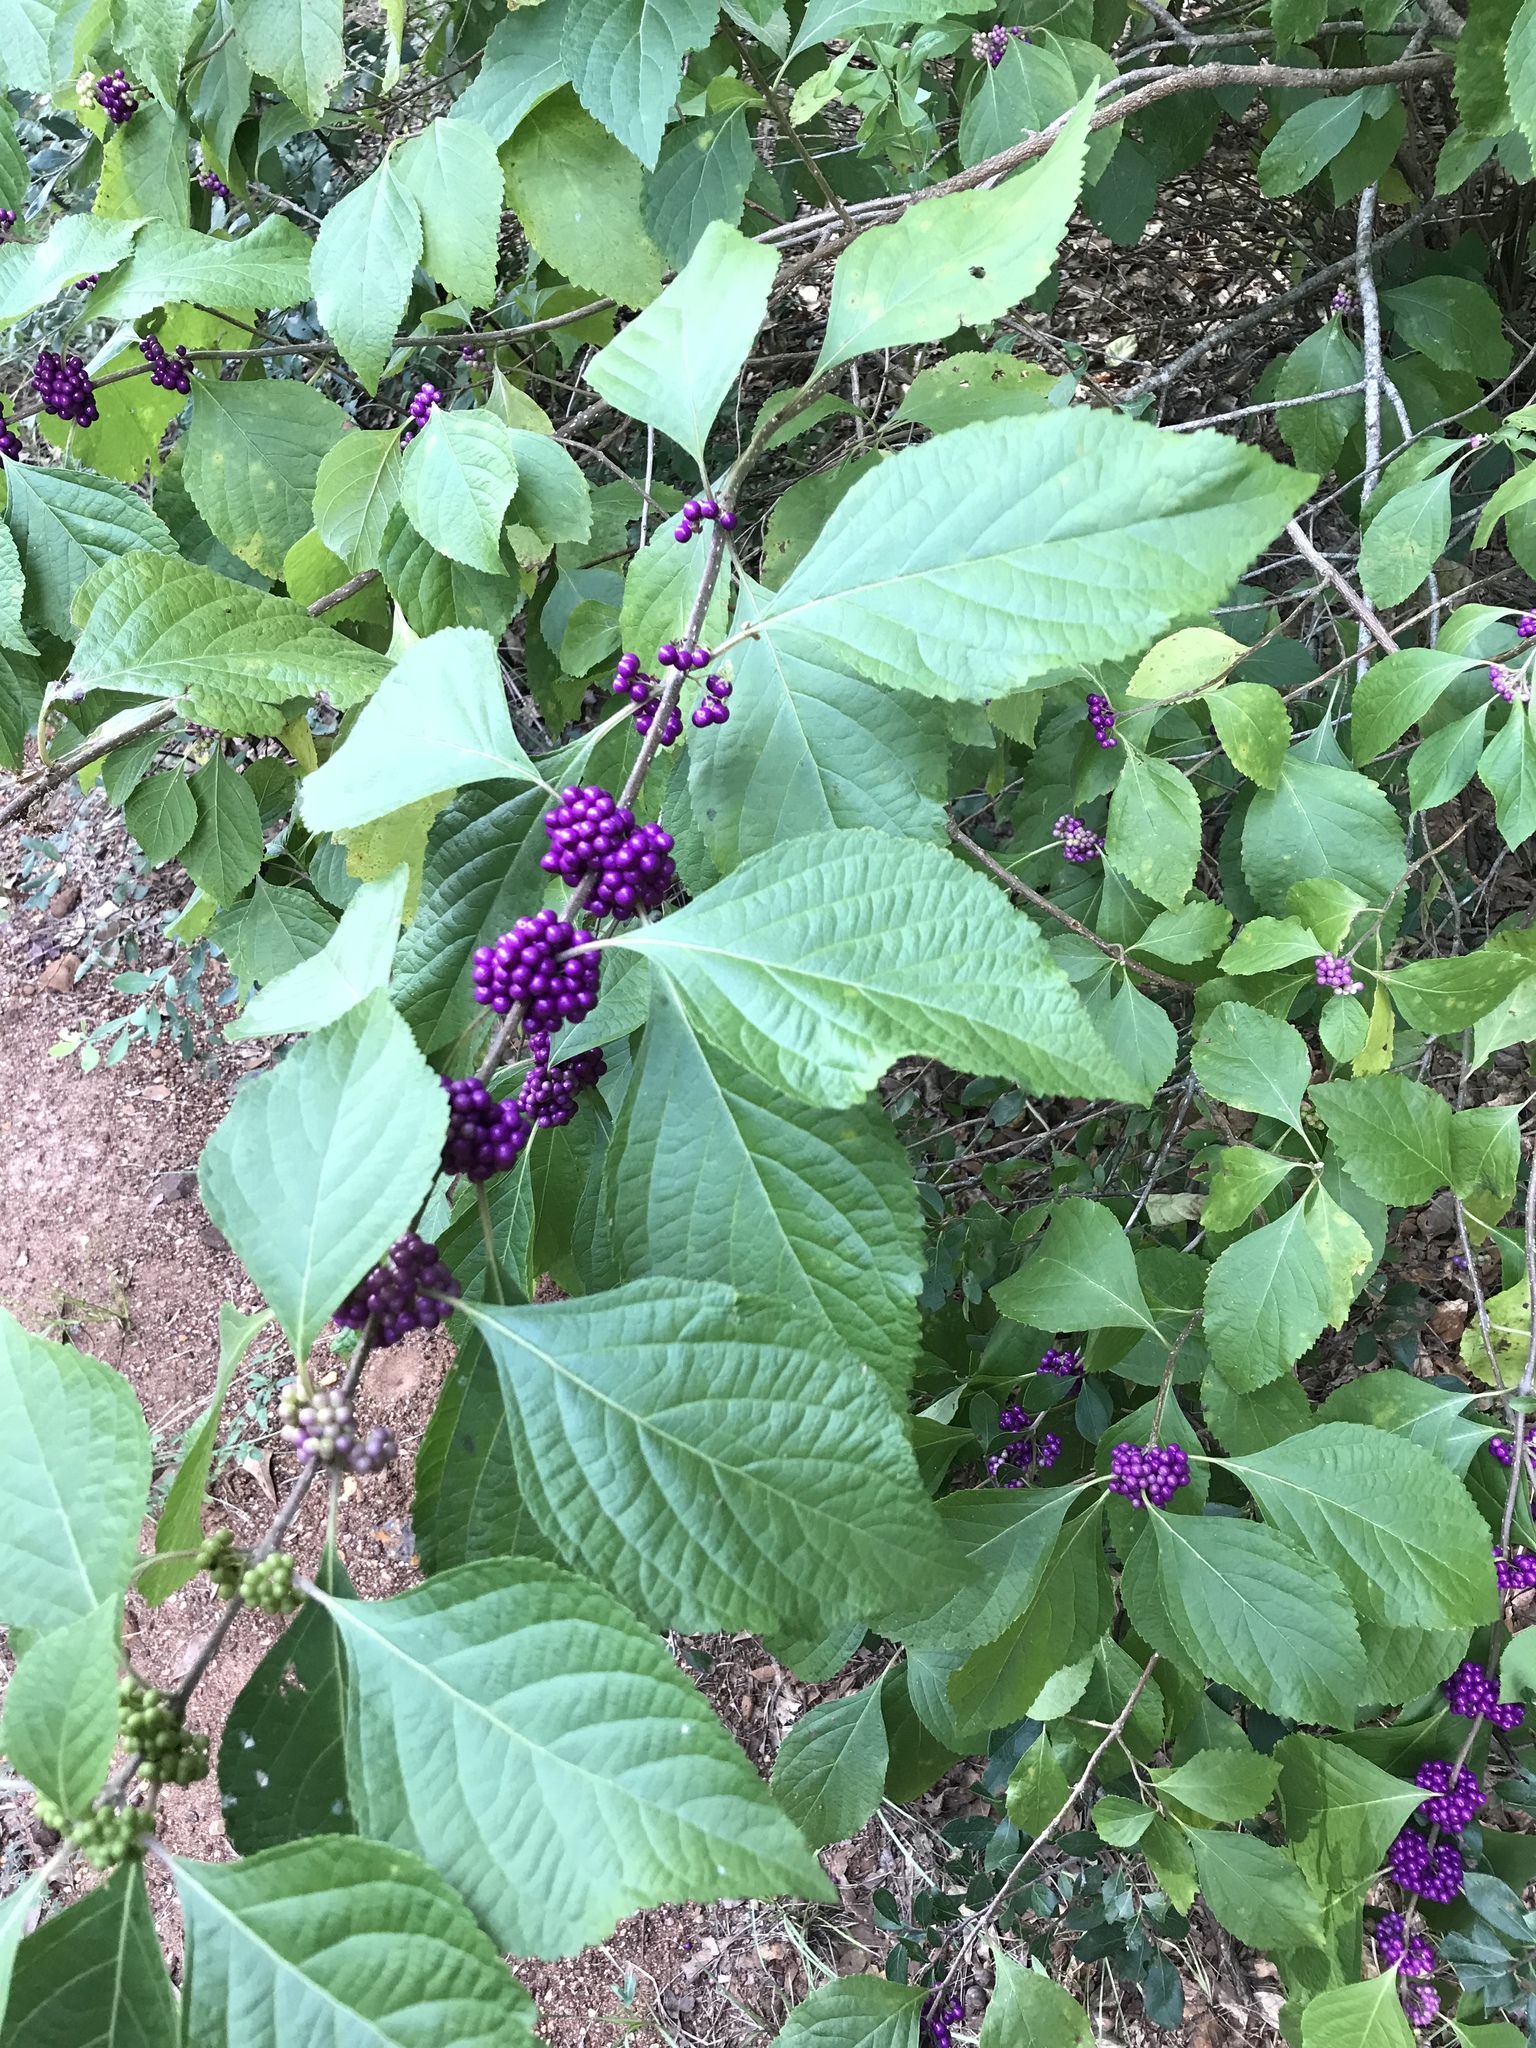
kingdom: Plantae
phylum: Tracheophyta
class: Magnoliopsida
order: Lamiales
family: Lamiaceae
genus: Callicarpa
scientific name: Callicarpa americana
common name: American beautyberry
